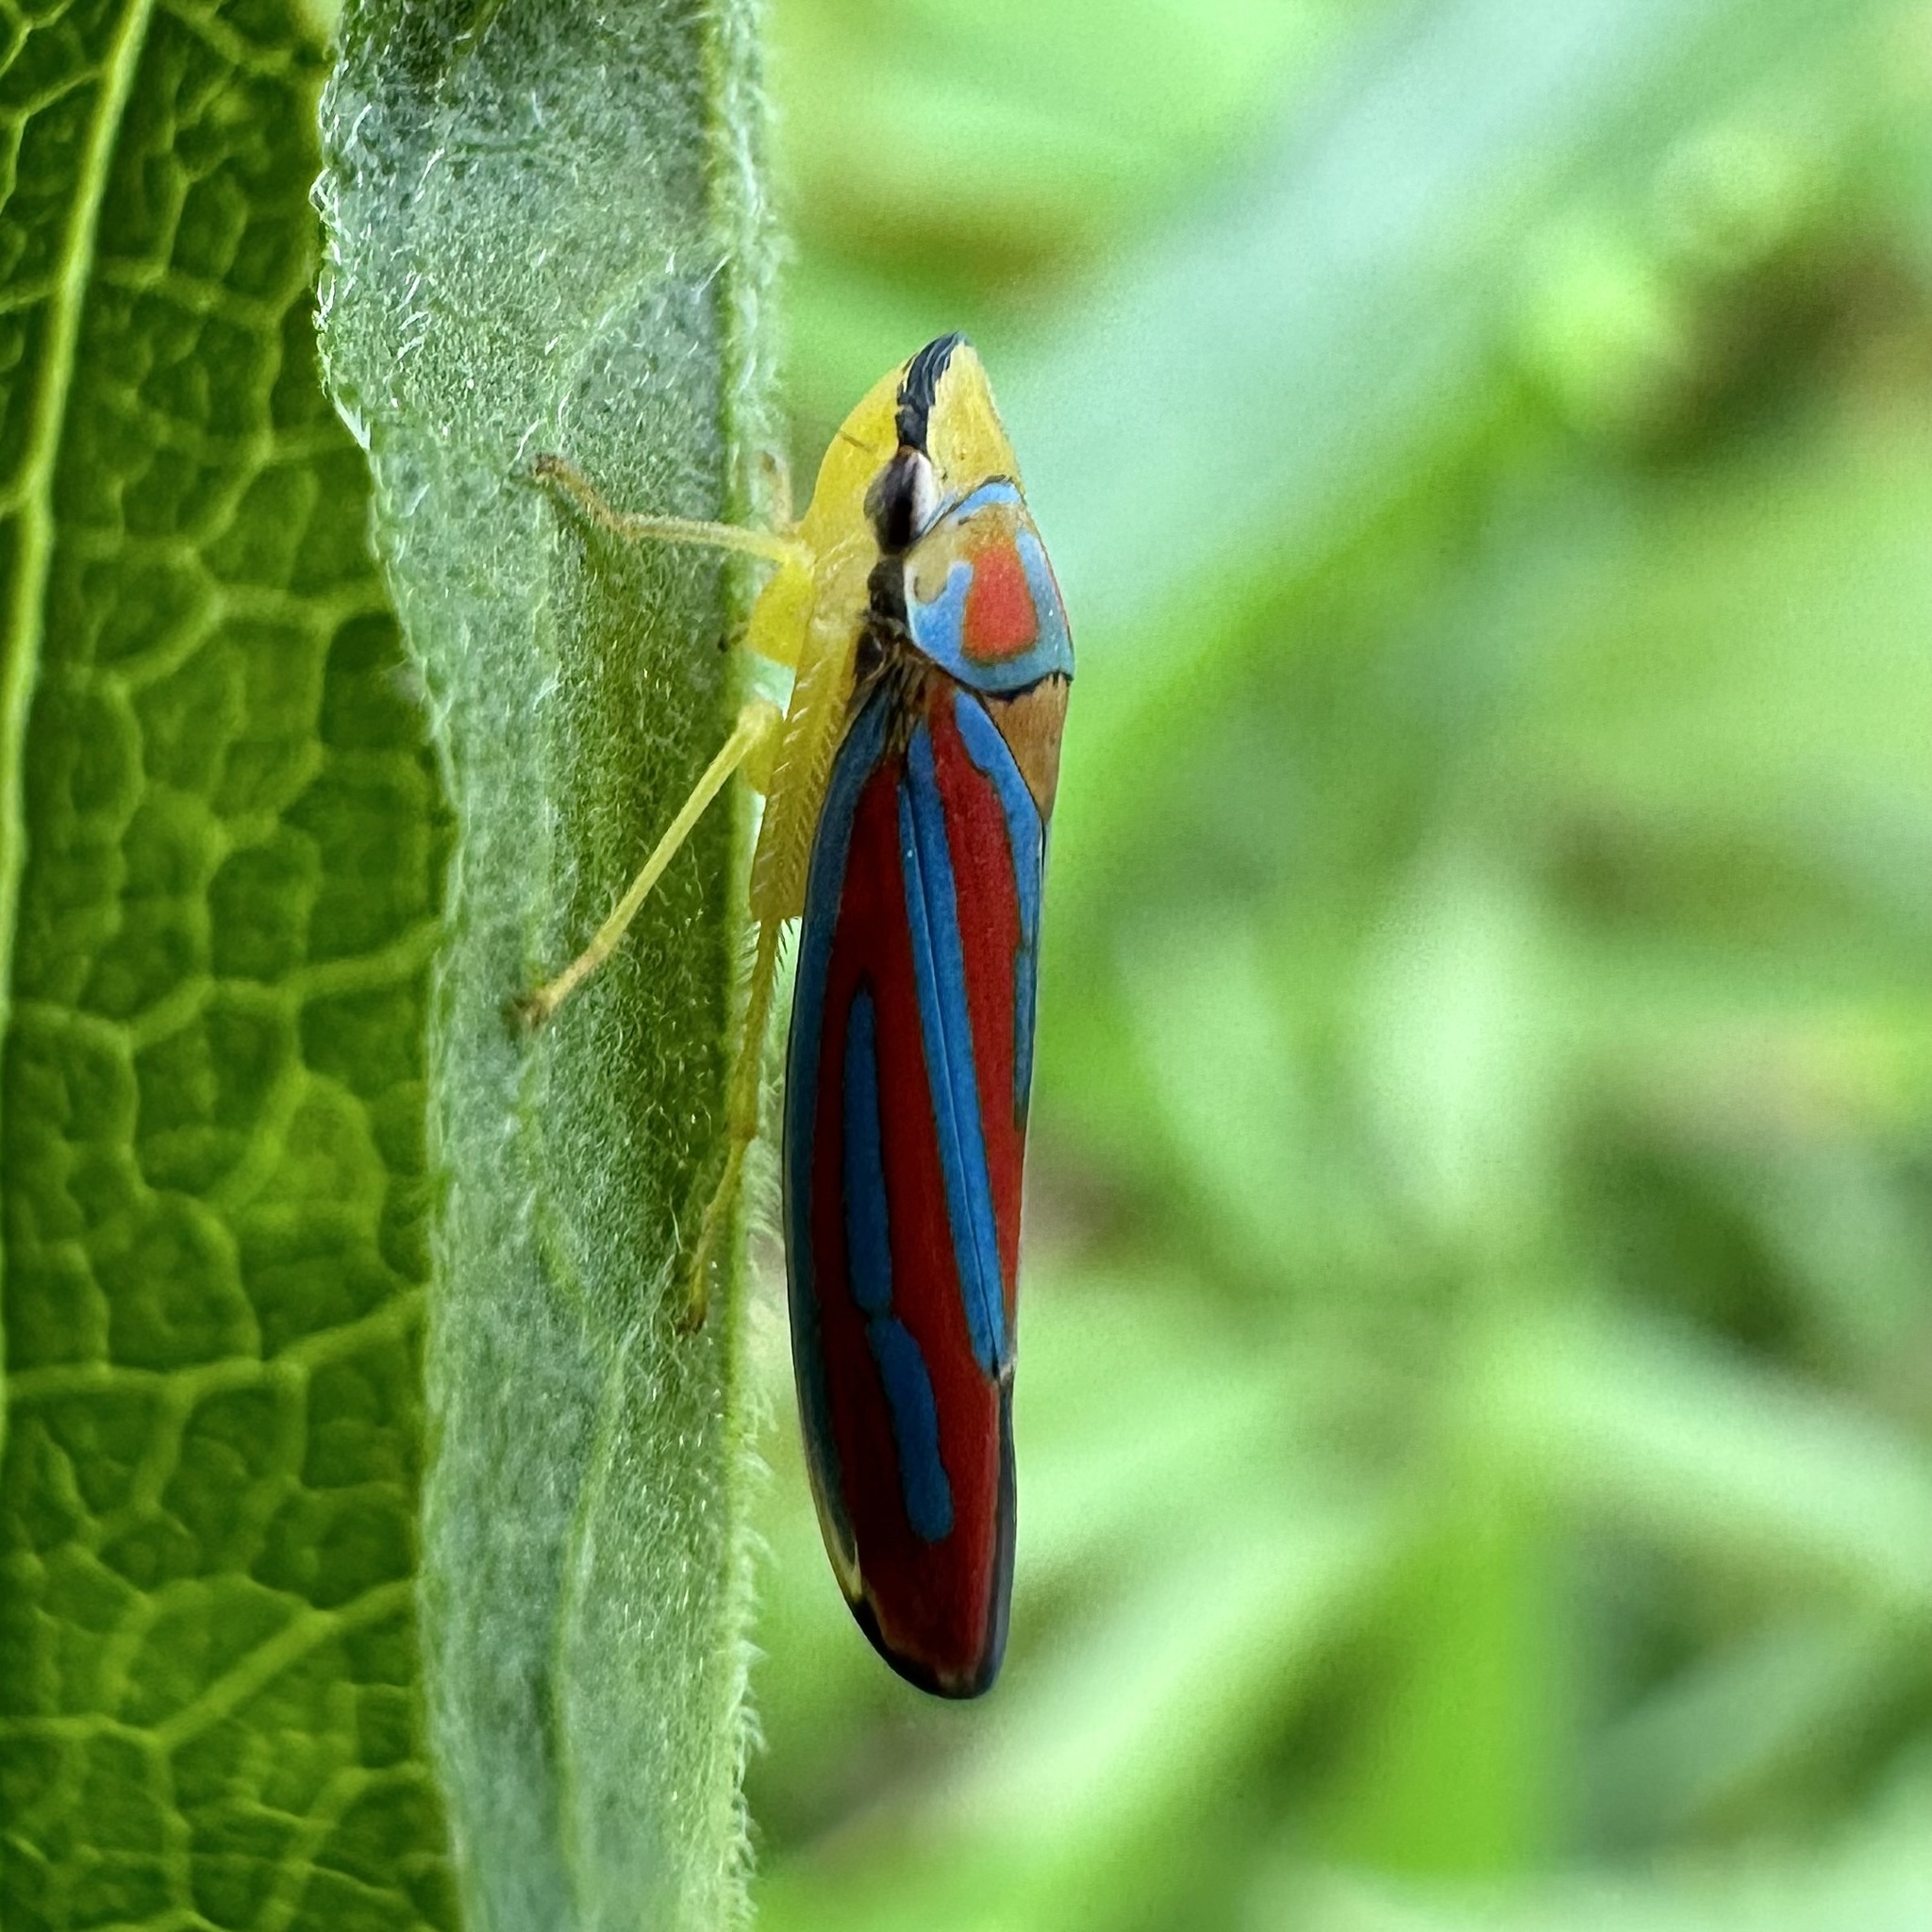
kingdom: Animalia
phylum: Arthropoda
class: Insecta
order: Hemiptera
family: Cicadellidae
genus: Graphocephala
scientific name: Graphocephala coccinea
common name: Candy-striped leafhopper
